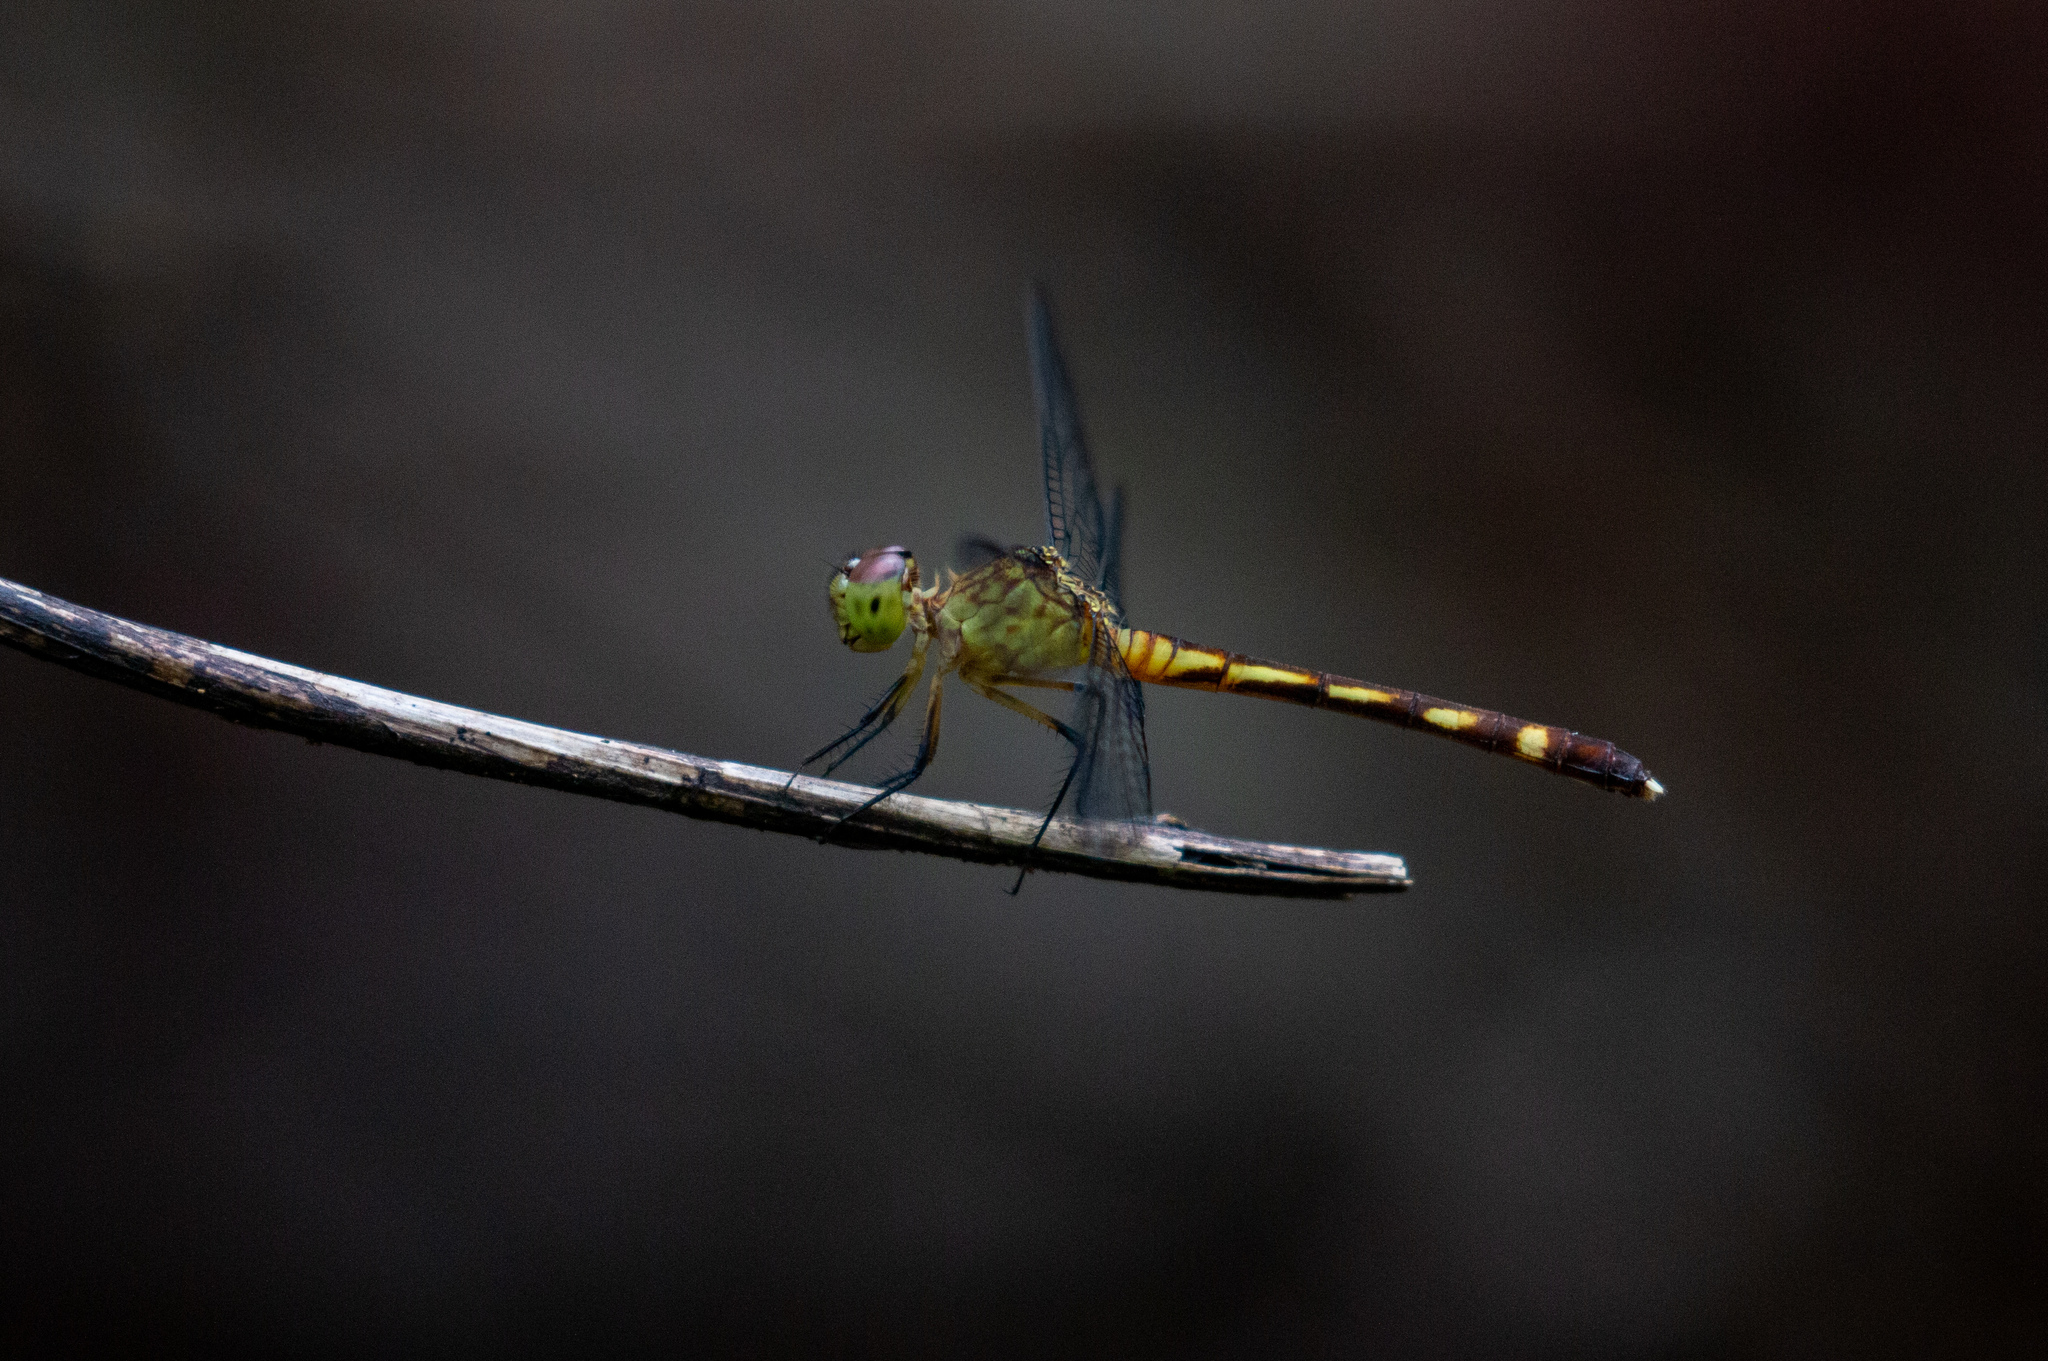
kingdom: Animalia
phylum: Arthropoda
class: Insecta
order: Odonata
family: Libellulidae
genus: Anatya
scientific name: Anatya januaria
